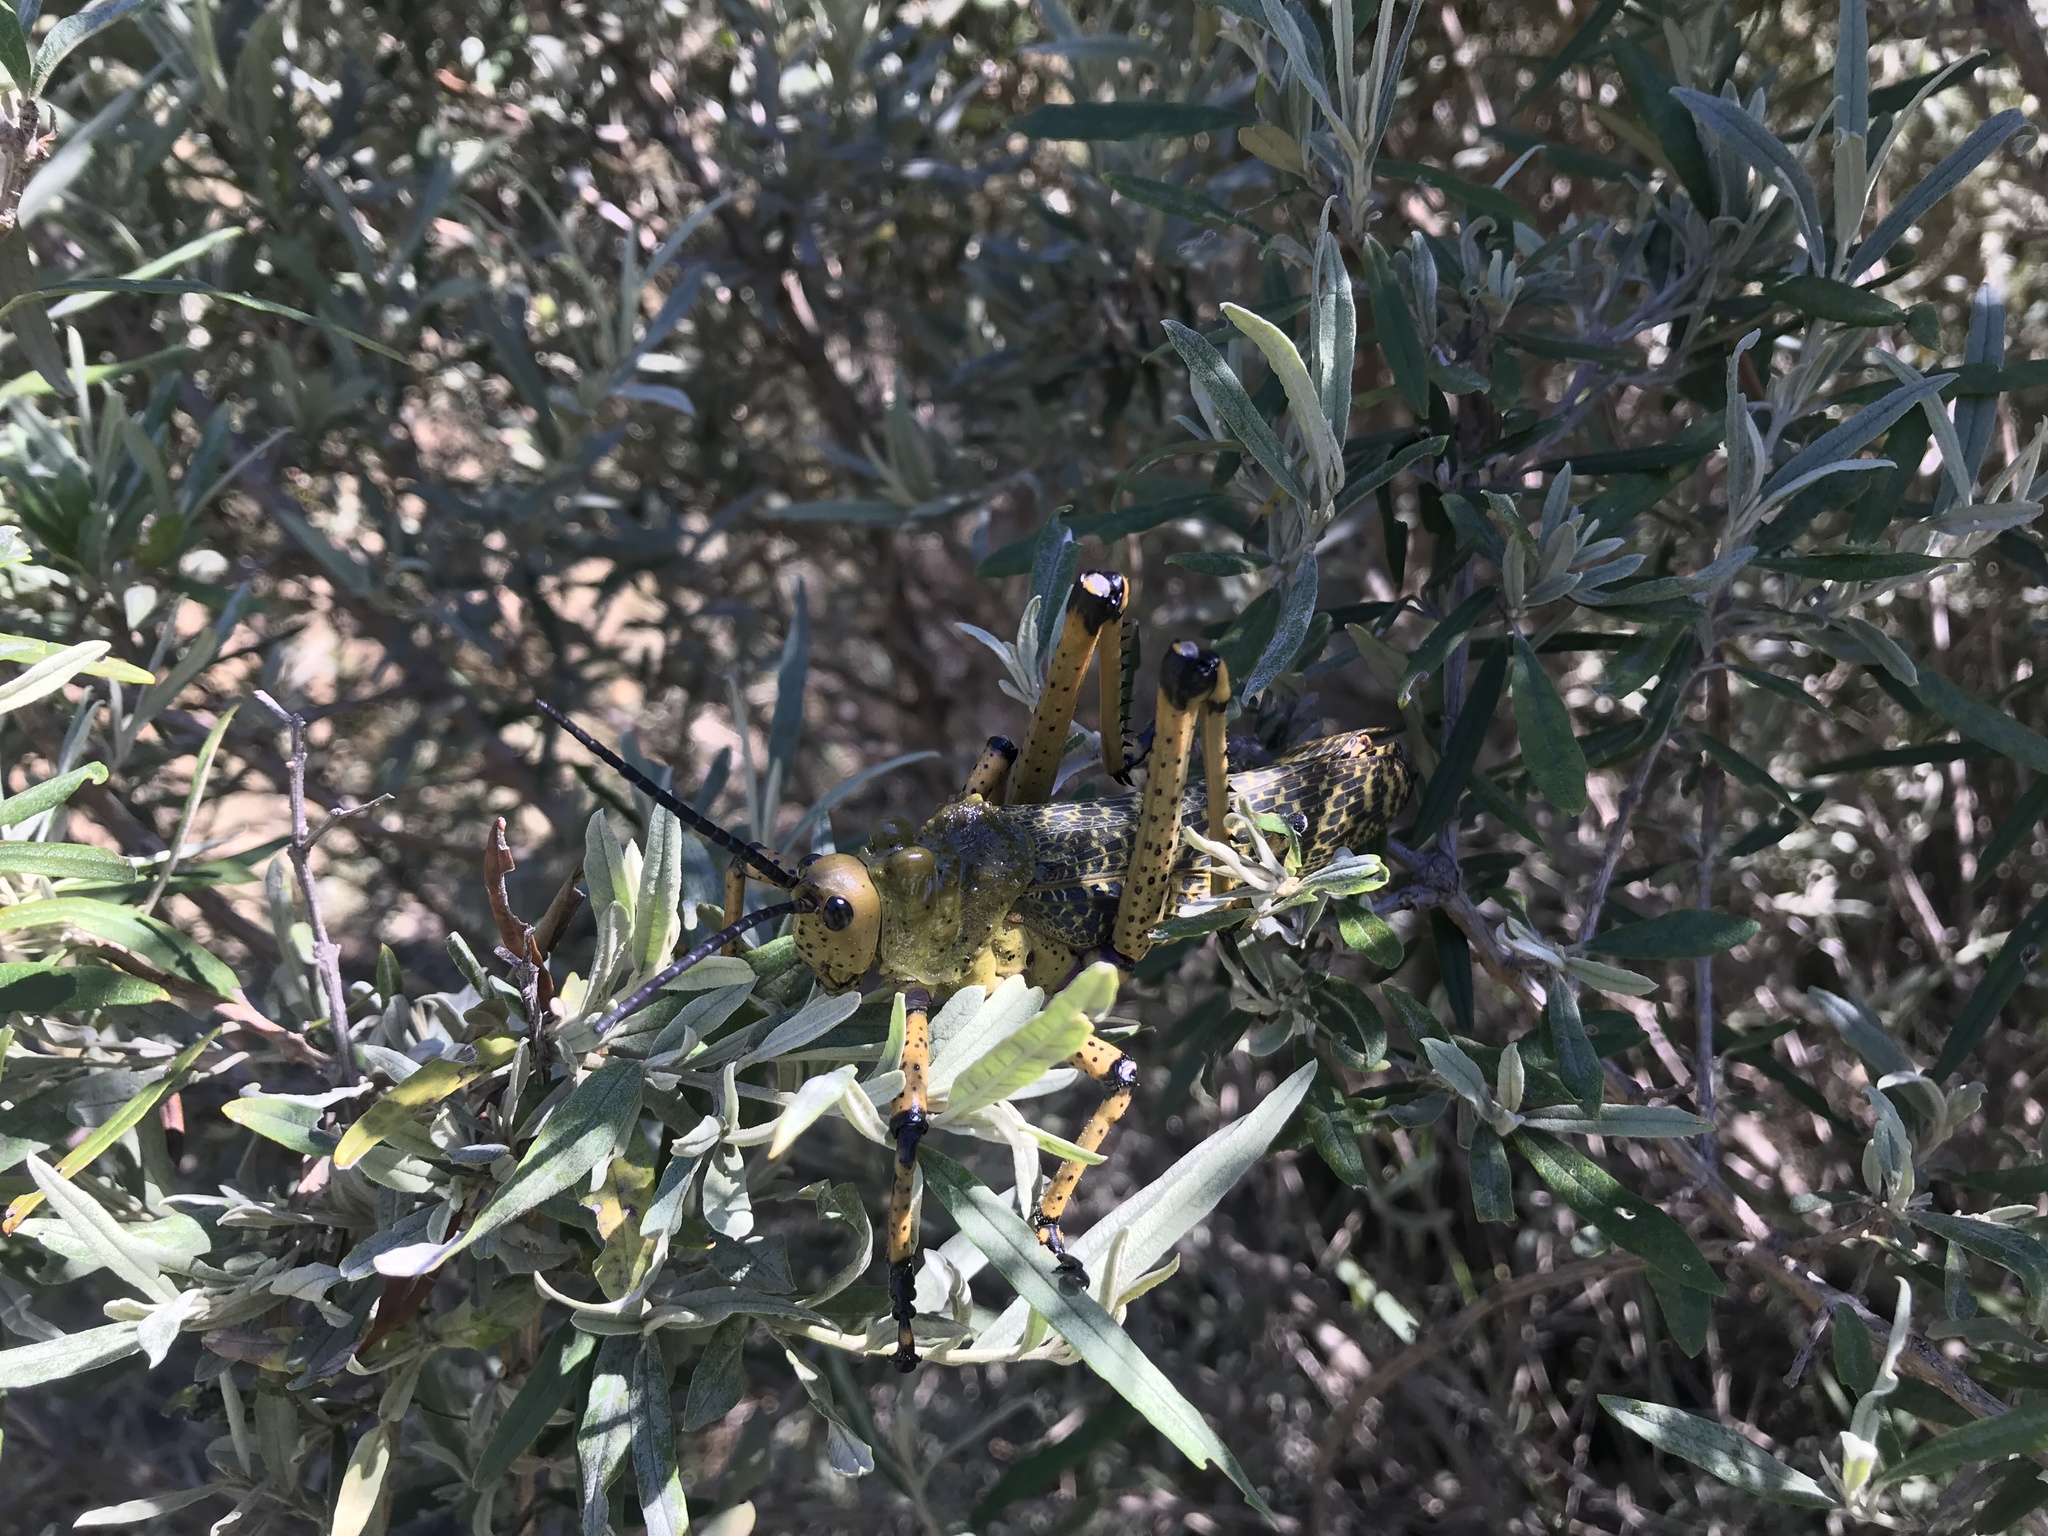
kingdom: Animalia
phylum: Arthropoda
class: Insecta
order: Orthoptera
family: Pyrgomorphidae
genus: Phymateus
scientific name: Phymateus leprosus
